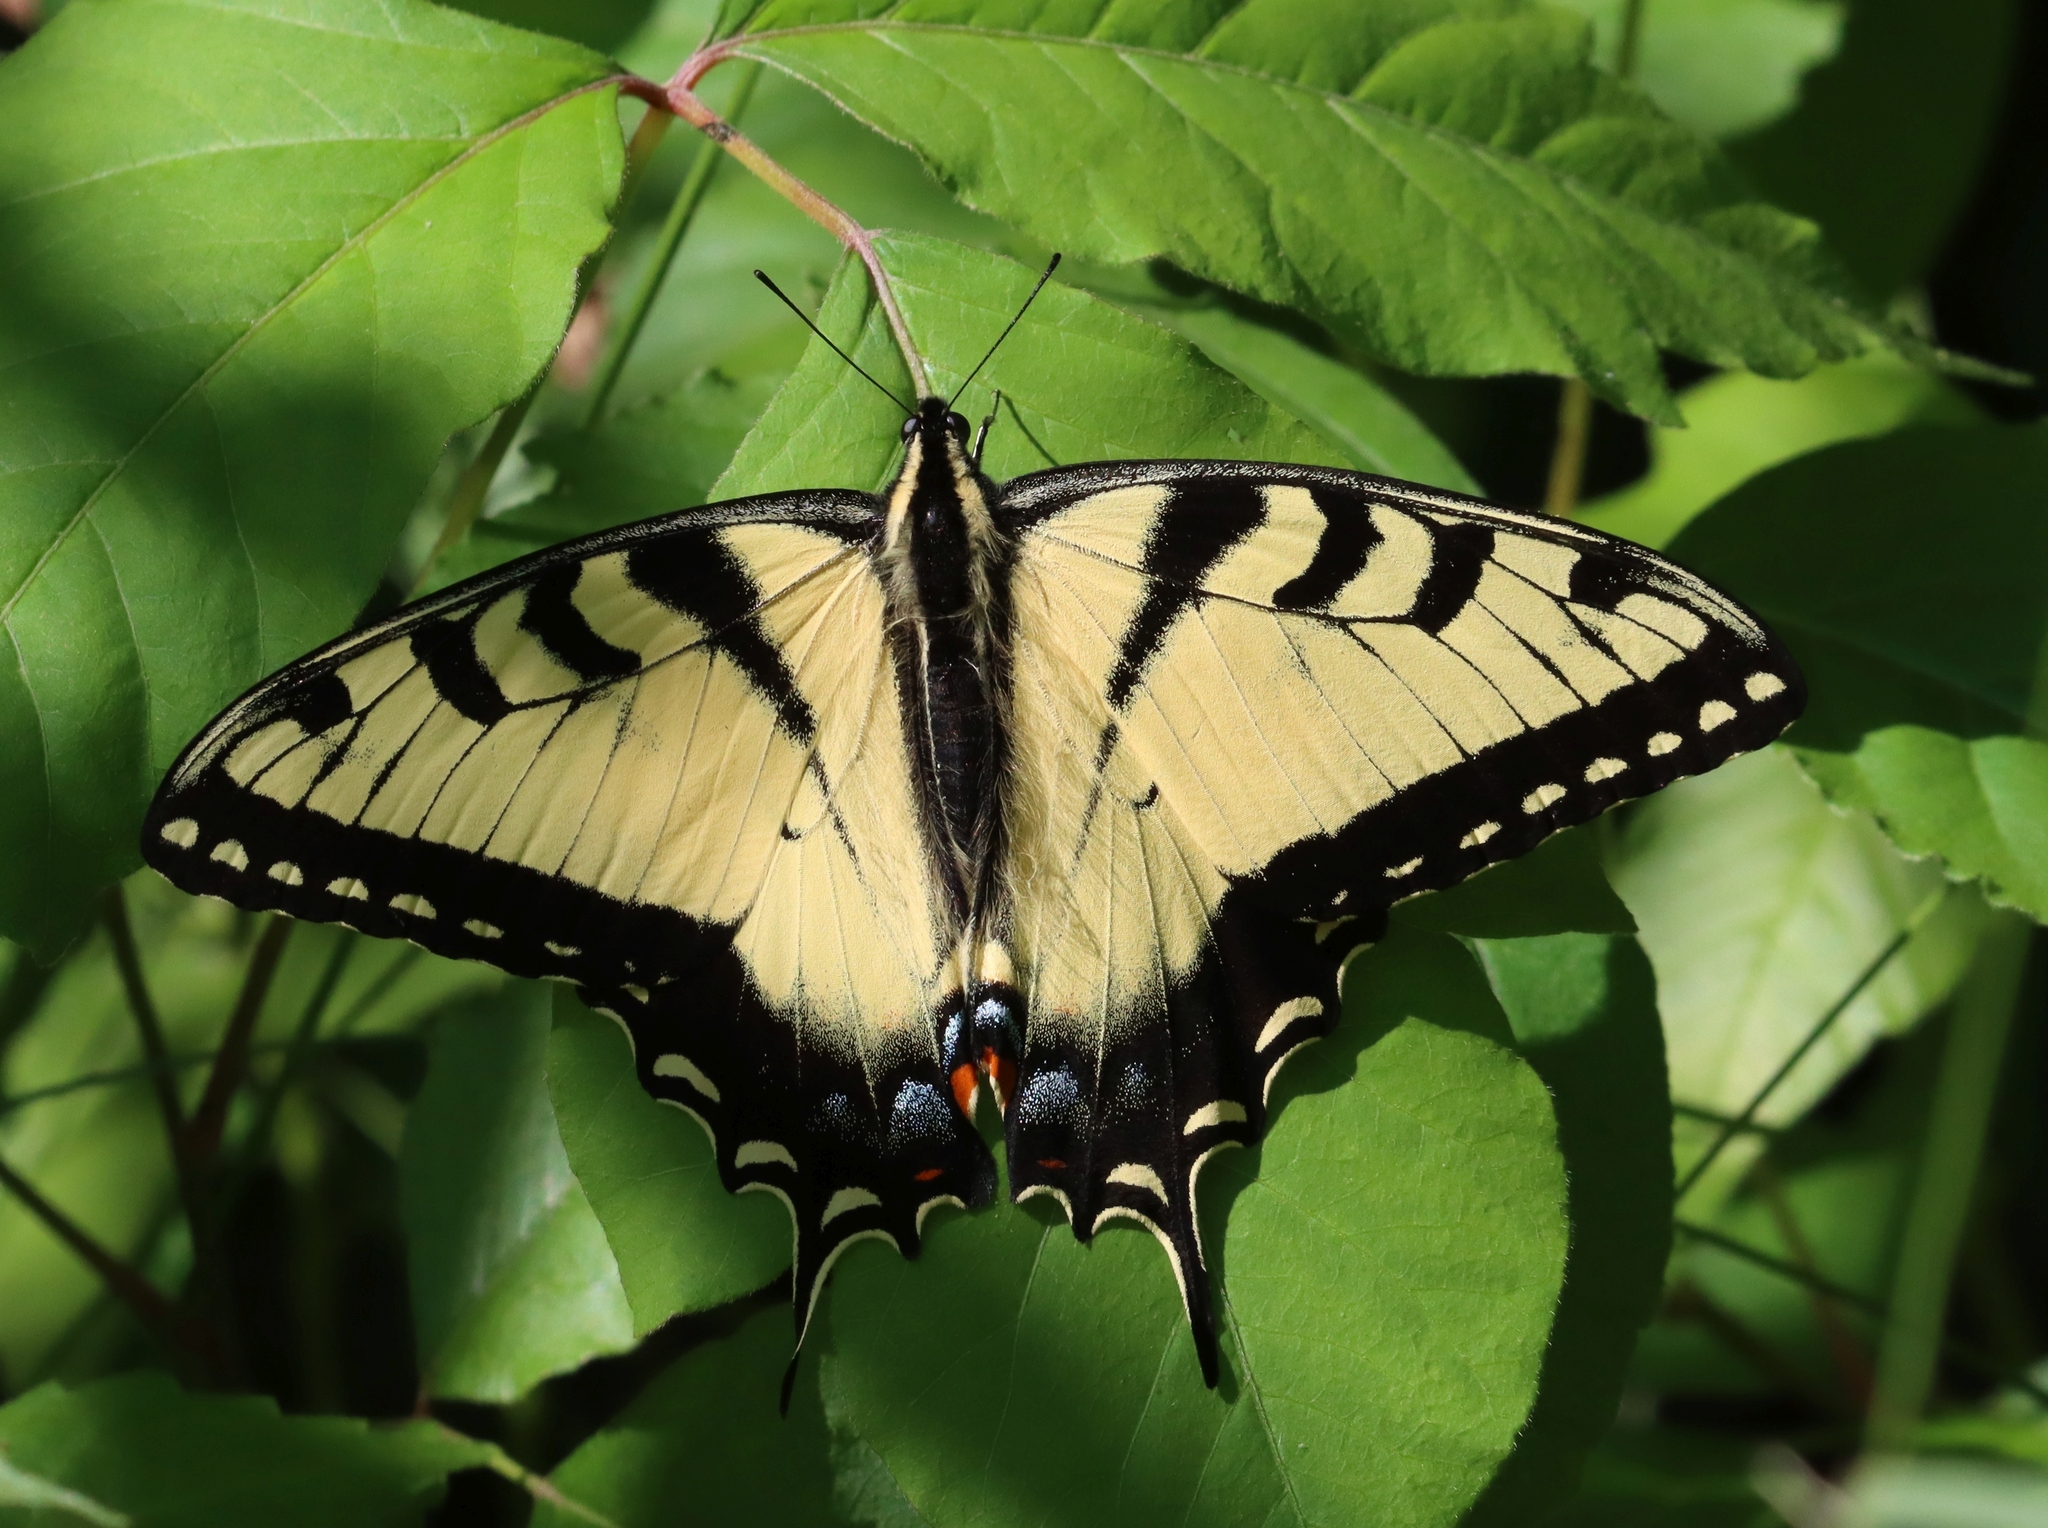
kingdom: Animalia
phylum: Arthropoda
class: Insecta
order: Lepidoptera
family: Papilionidae
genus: Papilio
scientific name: Papilio glaucus
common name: Tiger swallowtail
